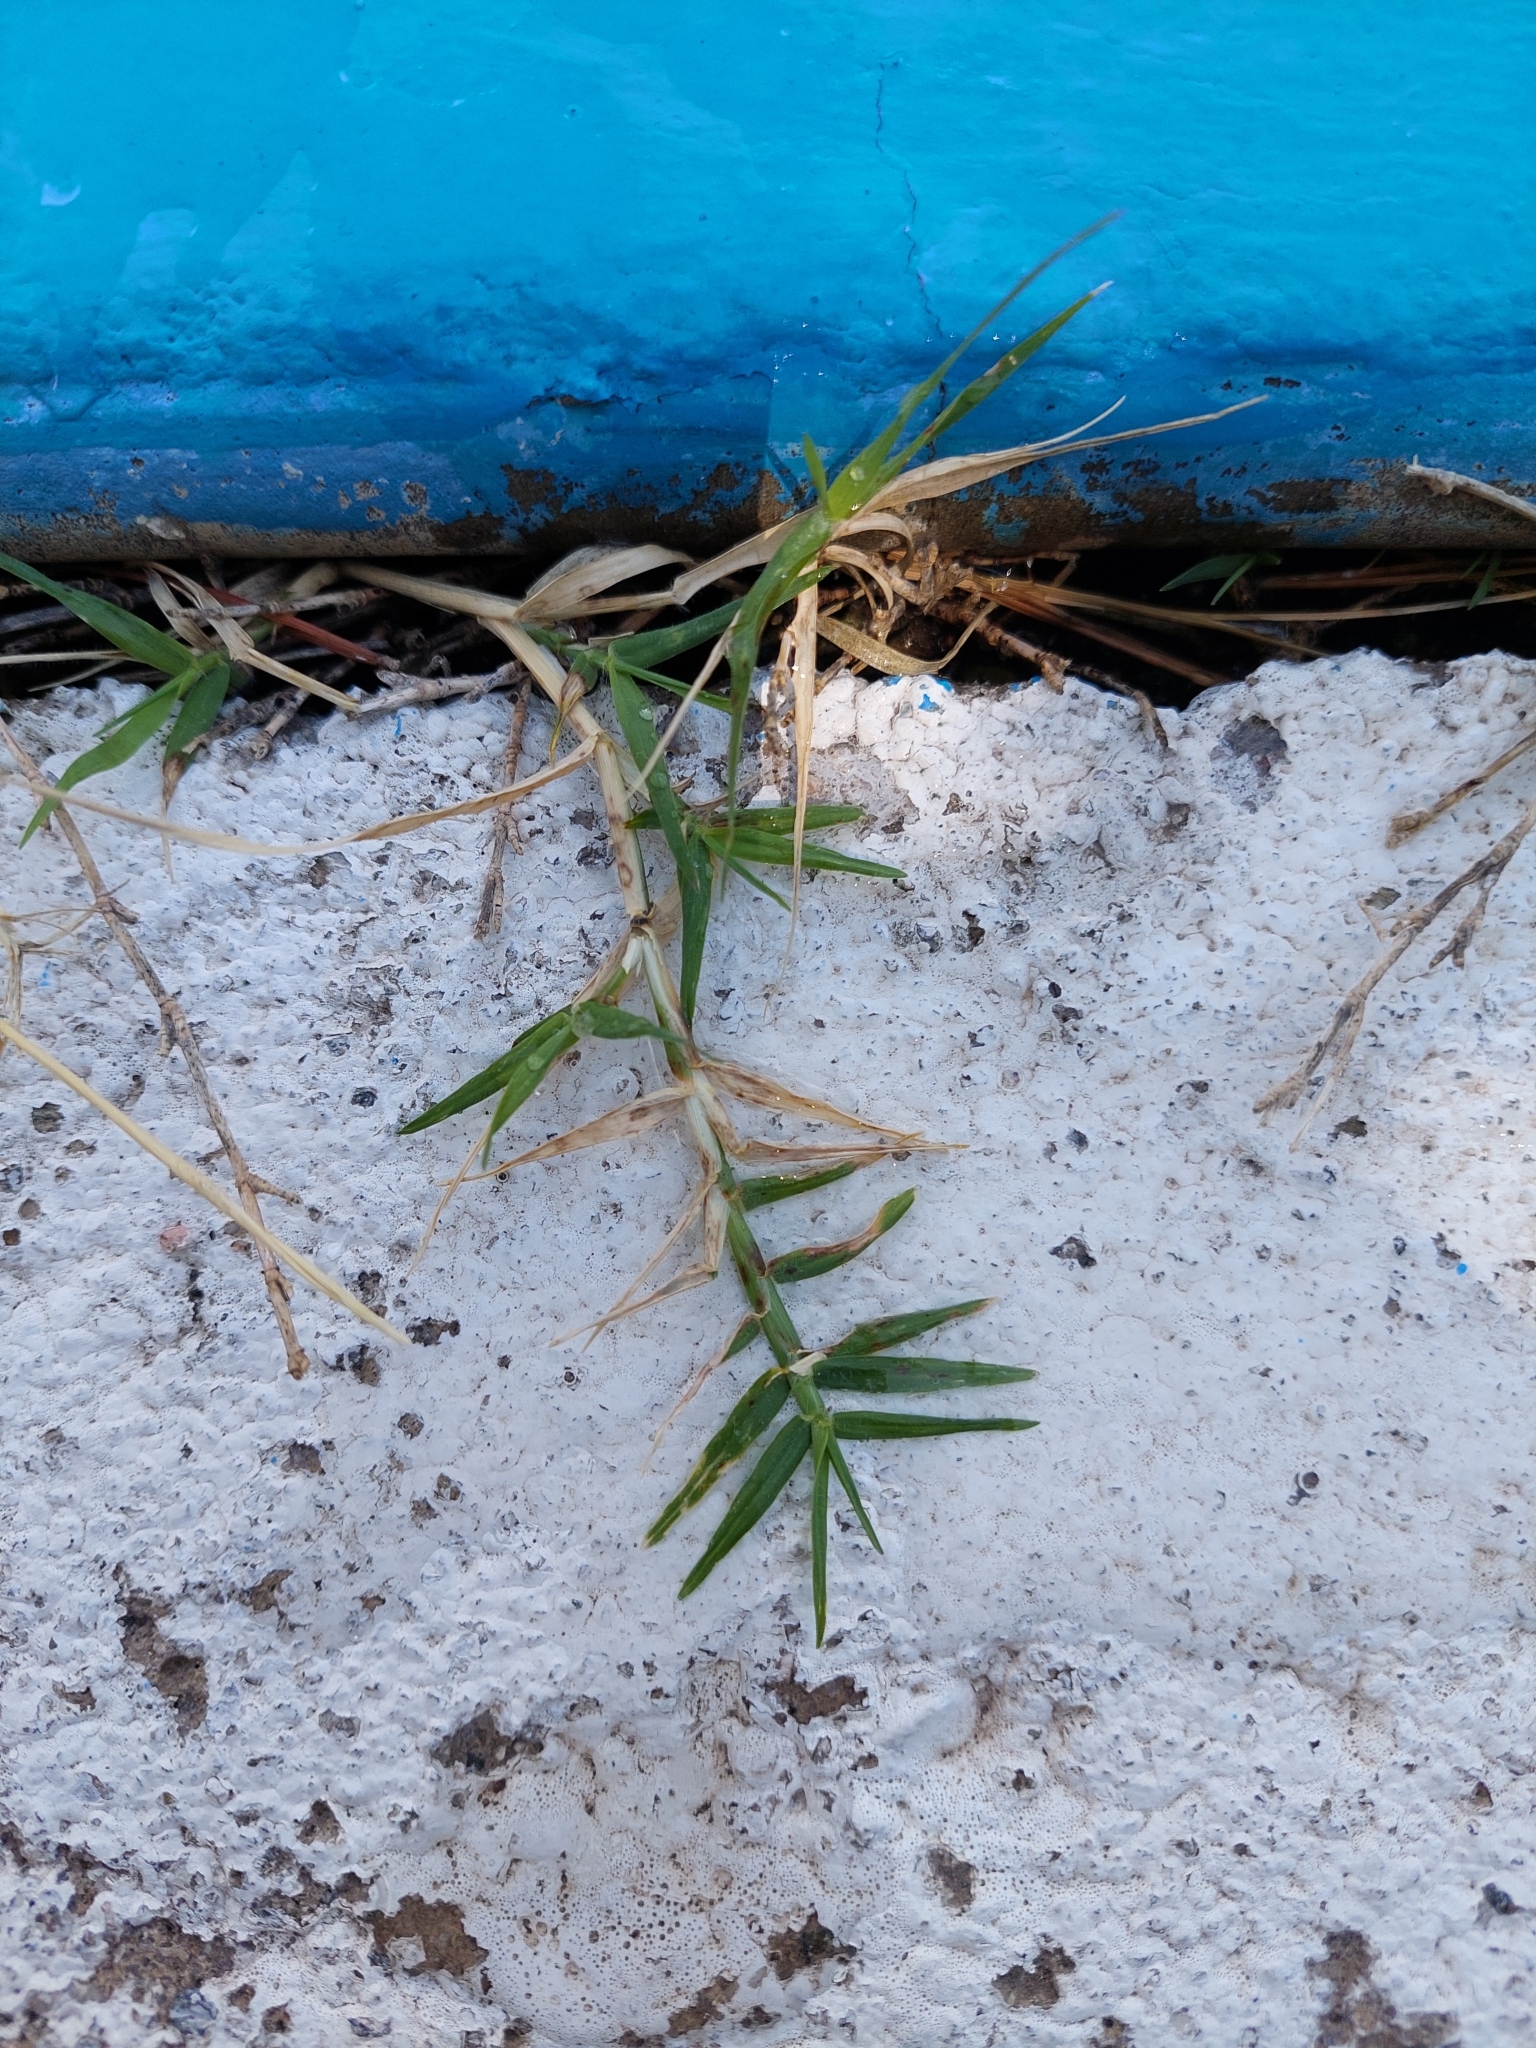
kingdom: Plantae
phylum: Tracheophyta
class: Liliopsida
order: Poales
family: Poaceae
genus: Cynodon
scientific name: Cynodon dactylon
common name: Bermuda grass
